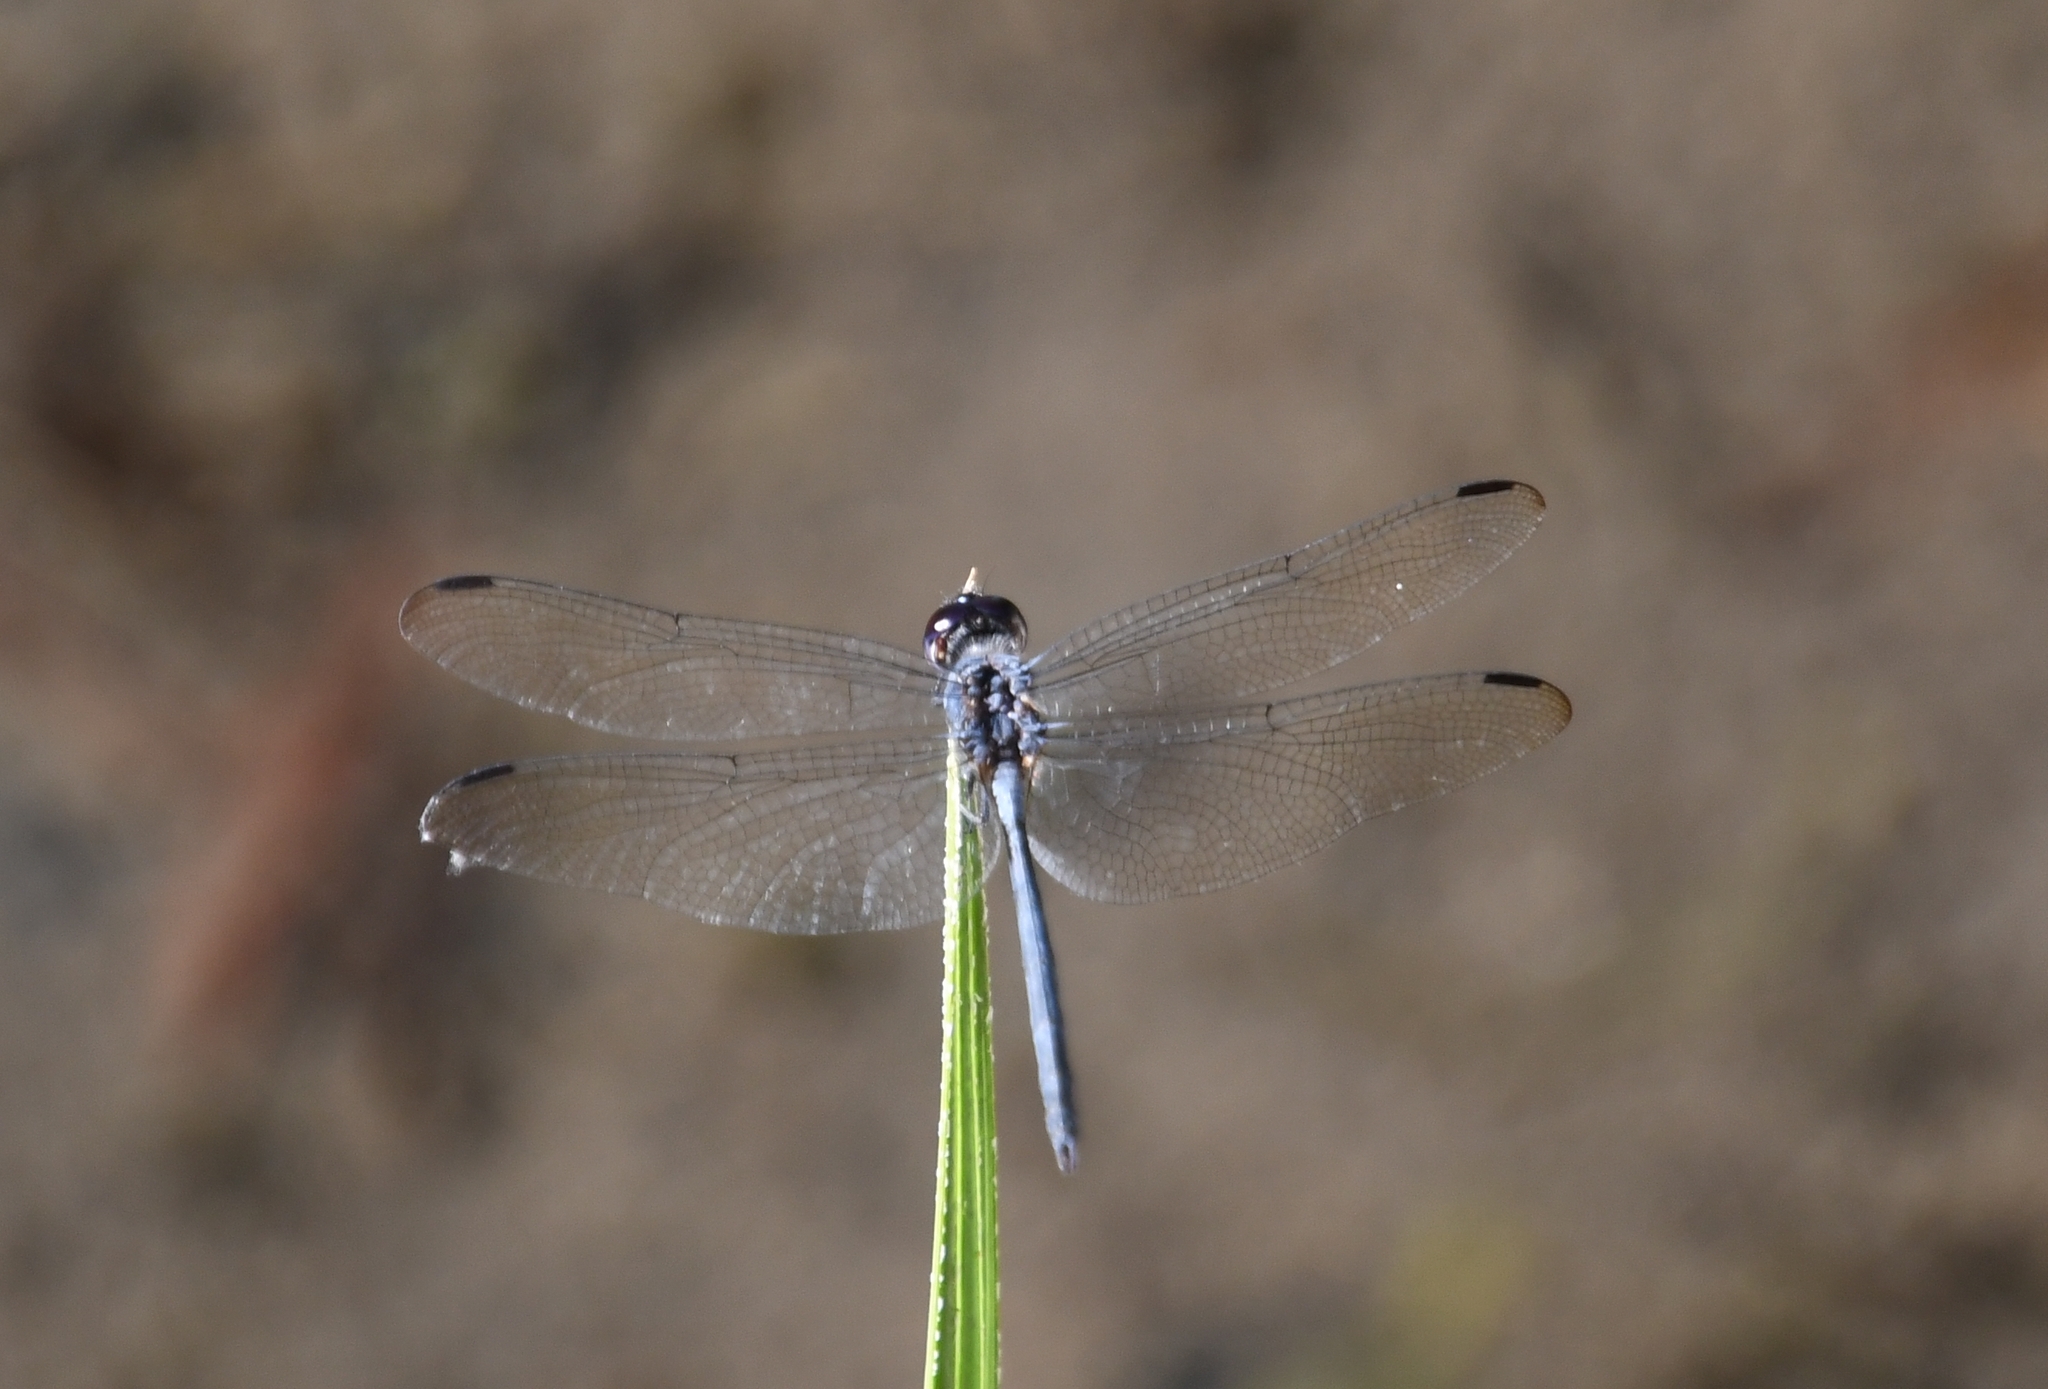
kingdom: Animalia
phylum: Arthropoda
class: Insecta
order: Odonata
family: Libellulidae
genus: Dythemis
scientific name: Dythemis nigrescens
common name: Black setwing
